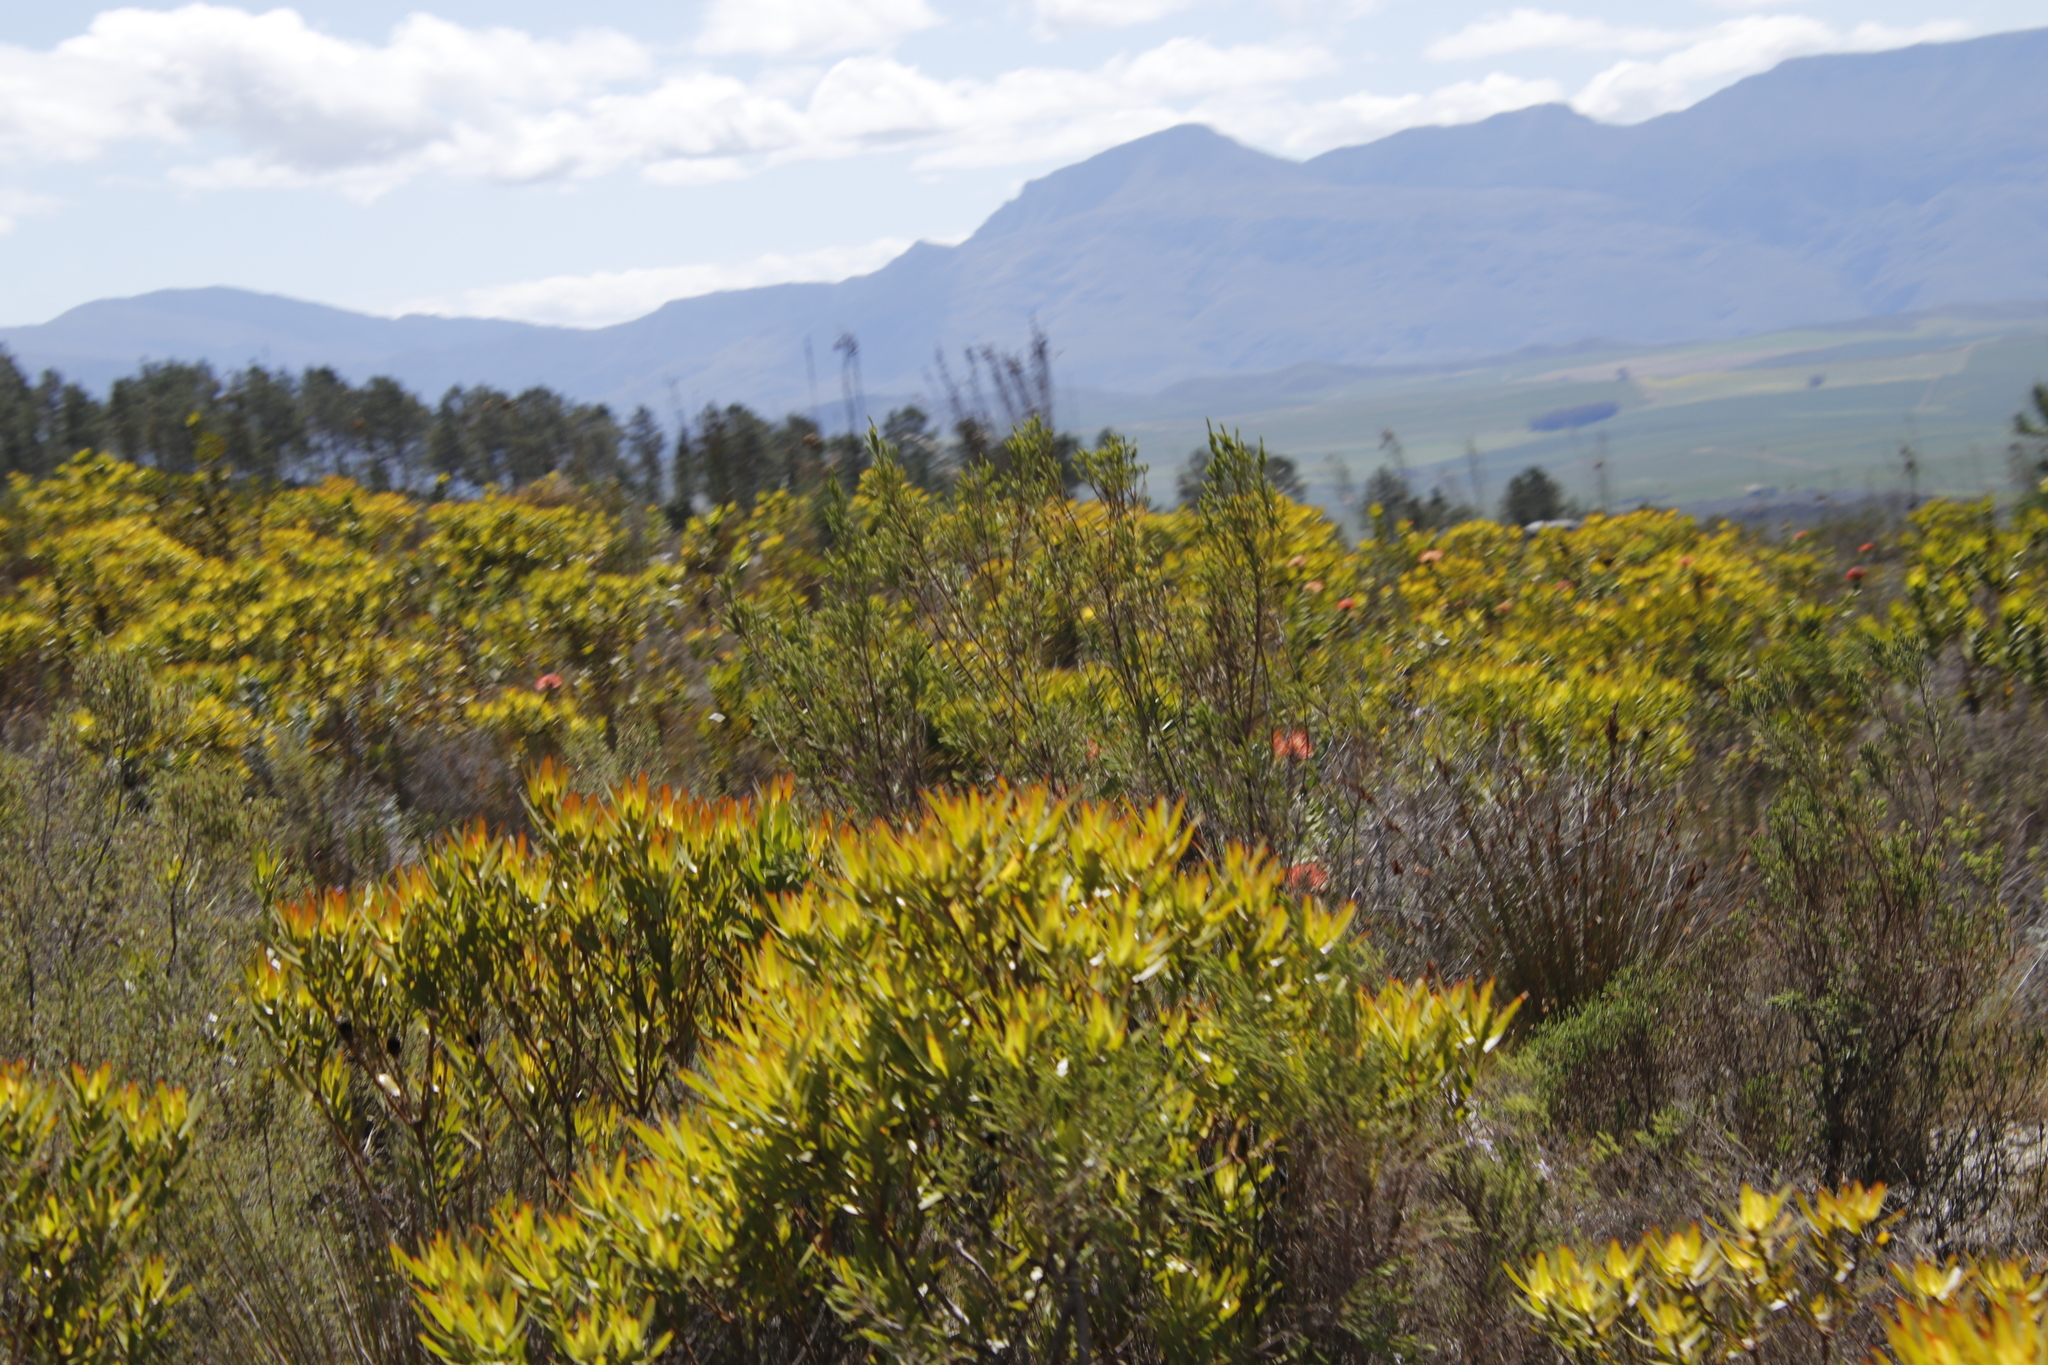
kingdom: Plantae
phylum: Tracheophyta
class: Magnoliopsida
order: Proteales
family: Proteaceae
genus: Leucadendron
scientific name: Leucadendron laureolum
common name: Golden sunshinebush
